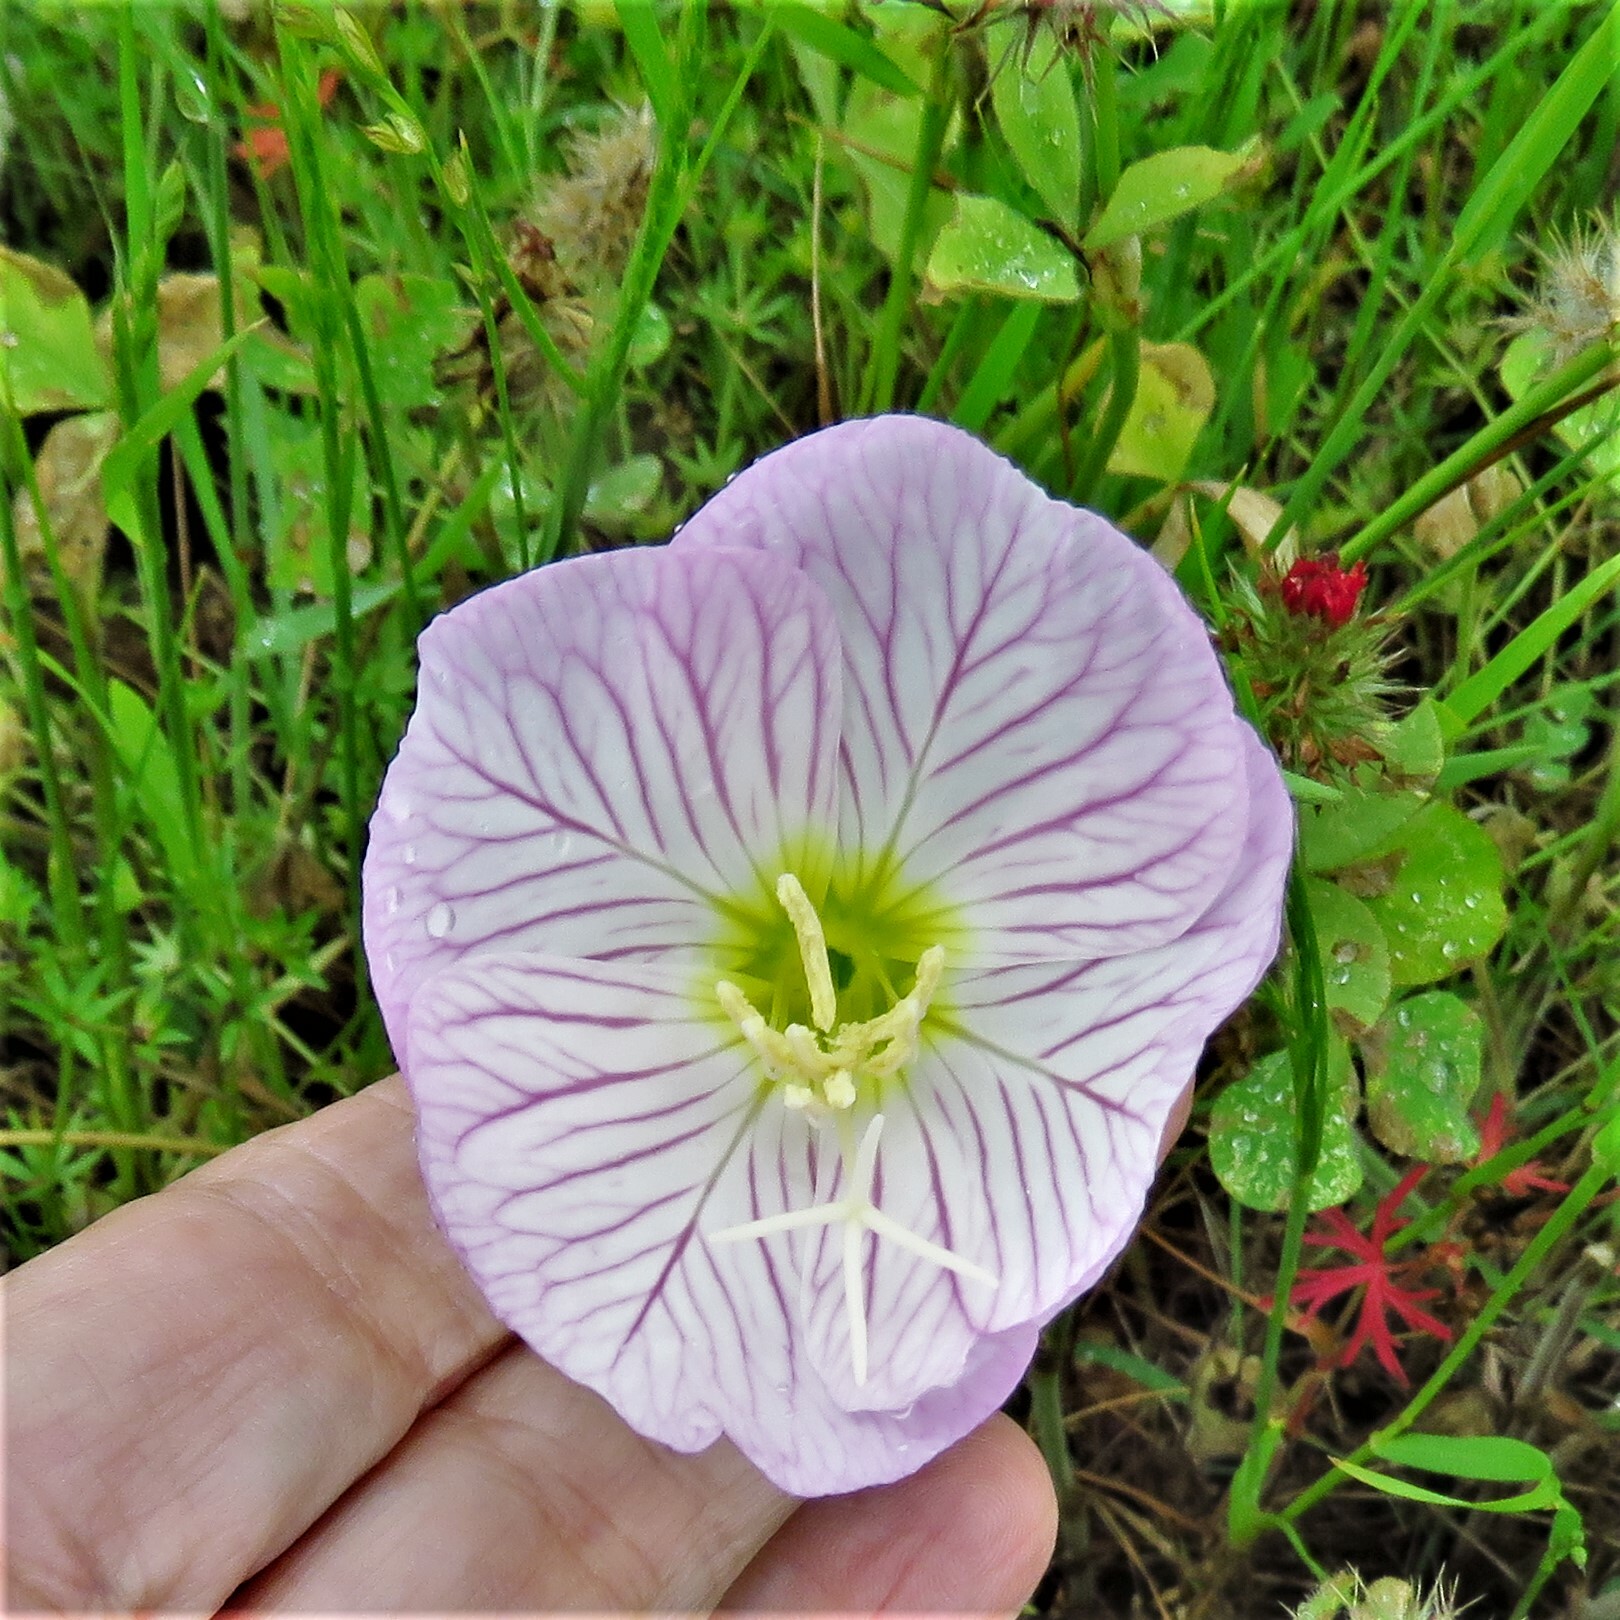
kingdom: Plantae
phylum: Tracheophyta
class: Magnoliopsida
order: Myrtales
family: Onagraceae
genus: Oenothera
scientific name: Oenothera speciosa
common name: White evening-primrose
